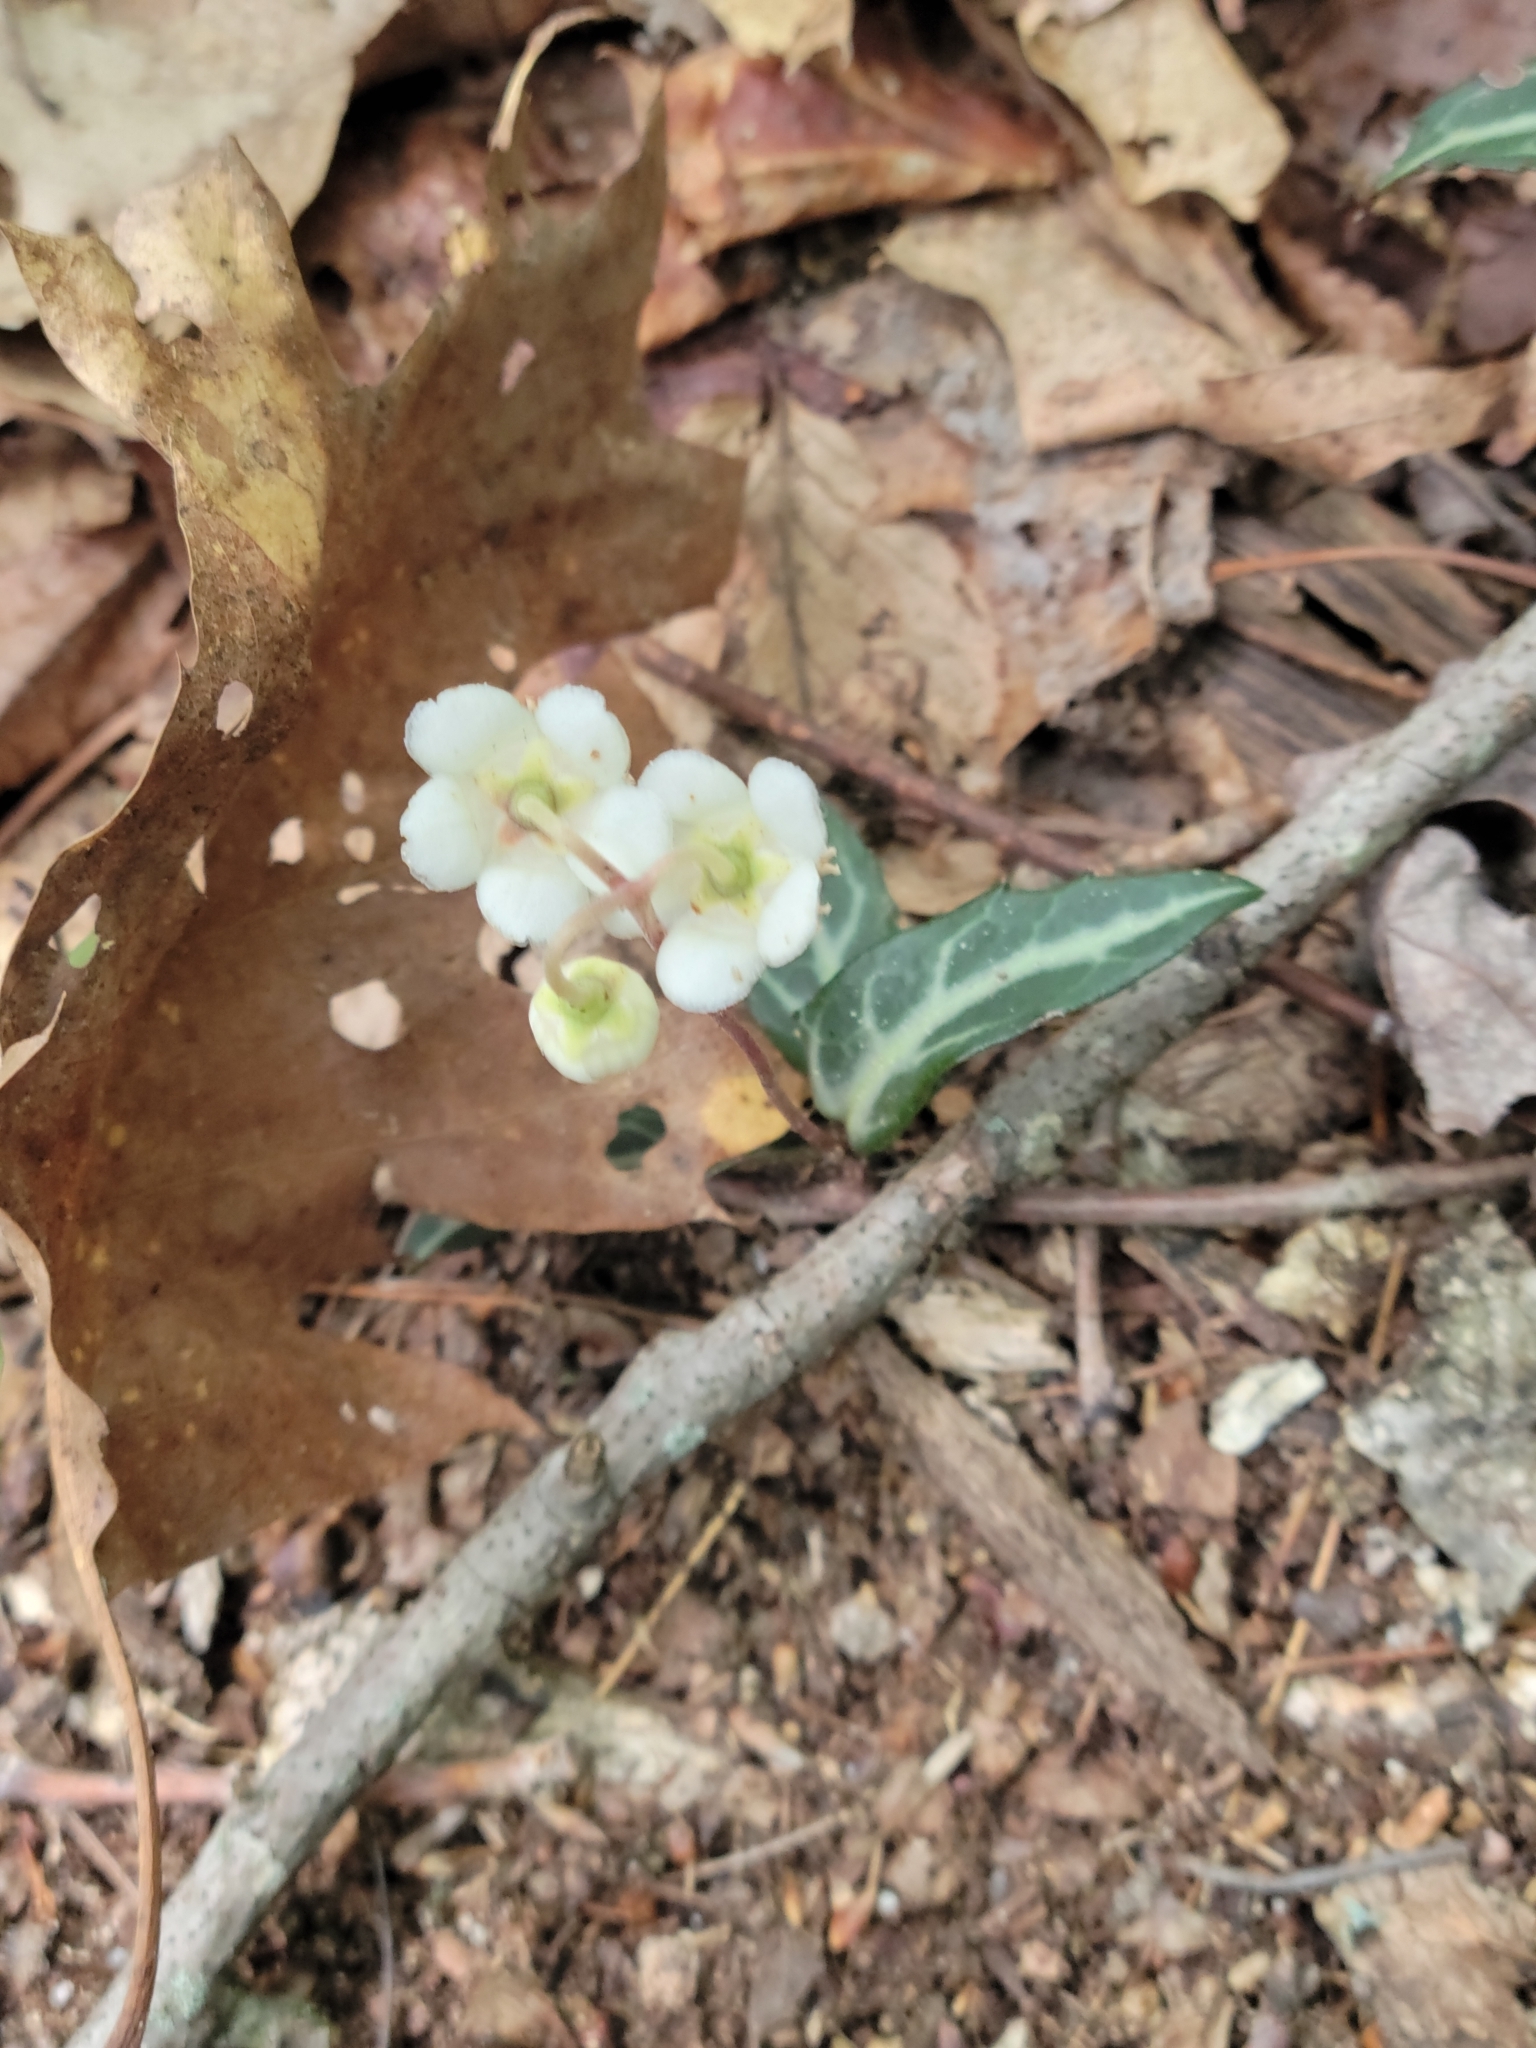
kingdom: Plantae
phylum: Tracheophyta
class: Magnoliopsida
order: Ericales
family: Ericaceae
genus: Chimaphila
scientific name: Chimaphila maculata
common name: Spotted pipsissewa
